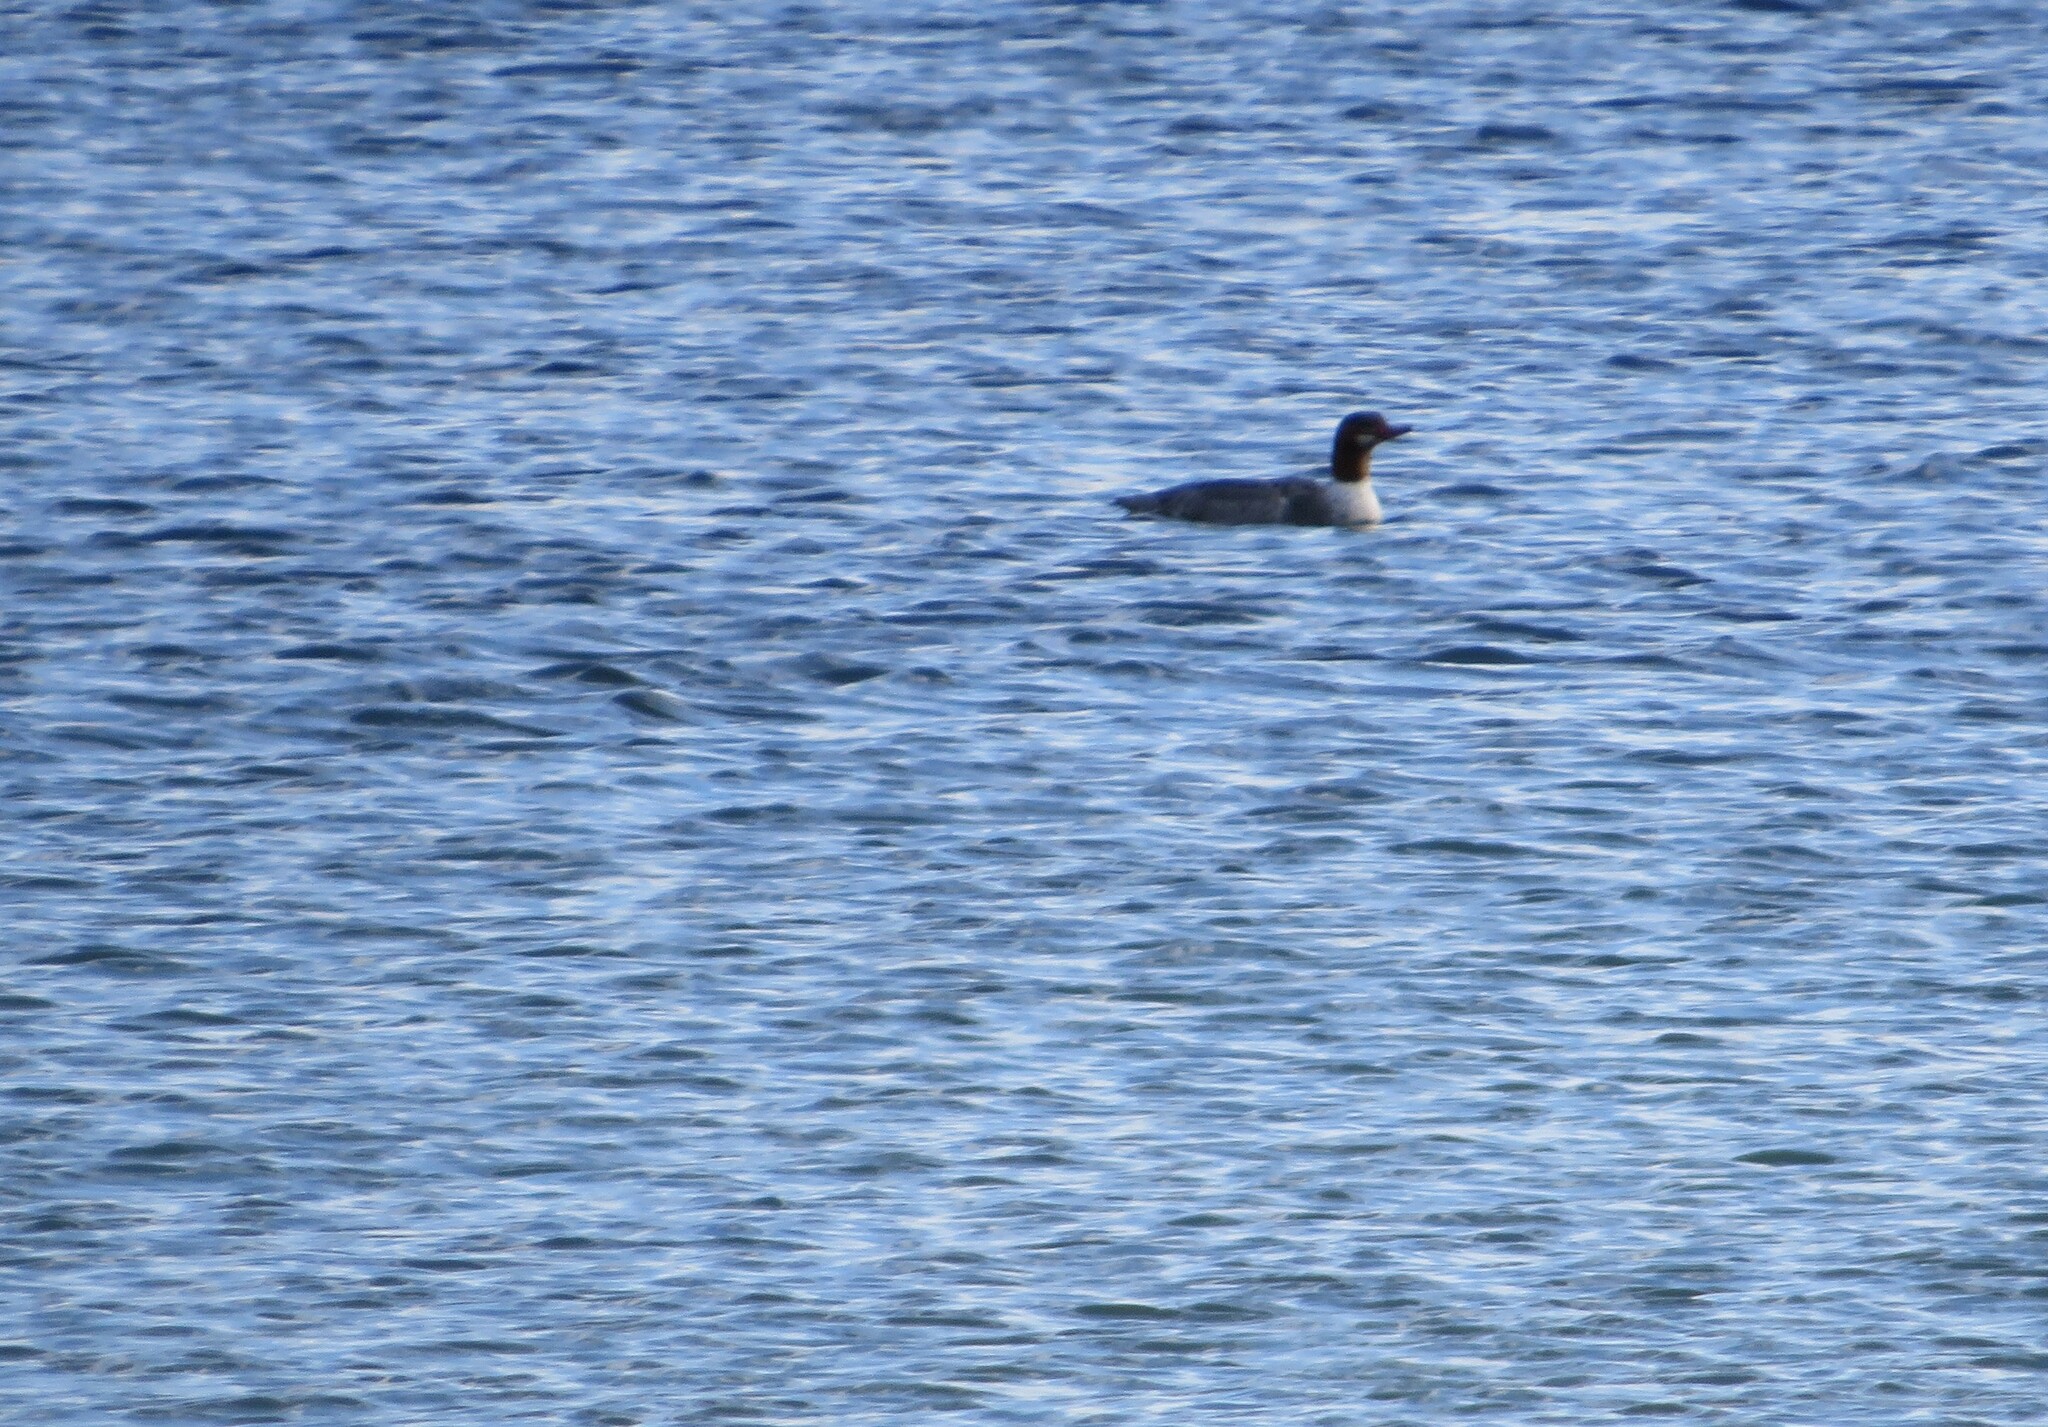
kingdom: Animalia
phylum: Chordata
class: Aves
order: Anseriformes
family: Anatidae
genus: Mergus
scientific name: Mergus merganser
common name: Common merganser
